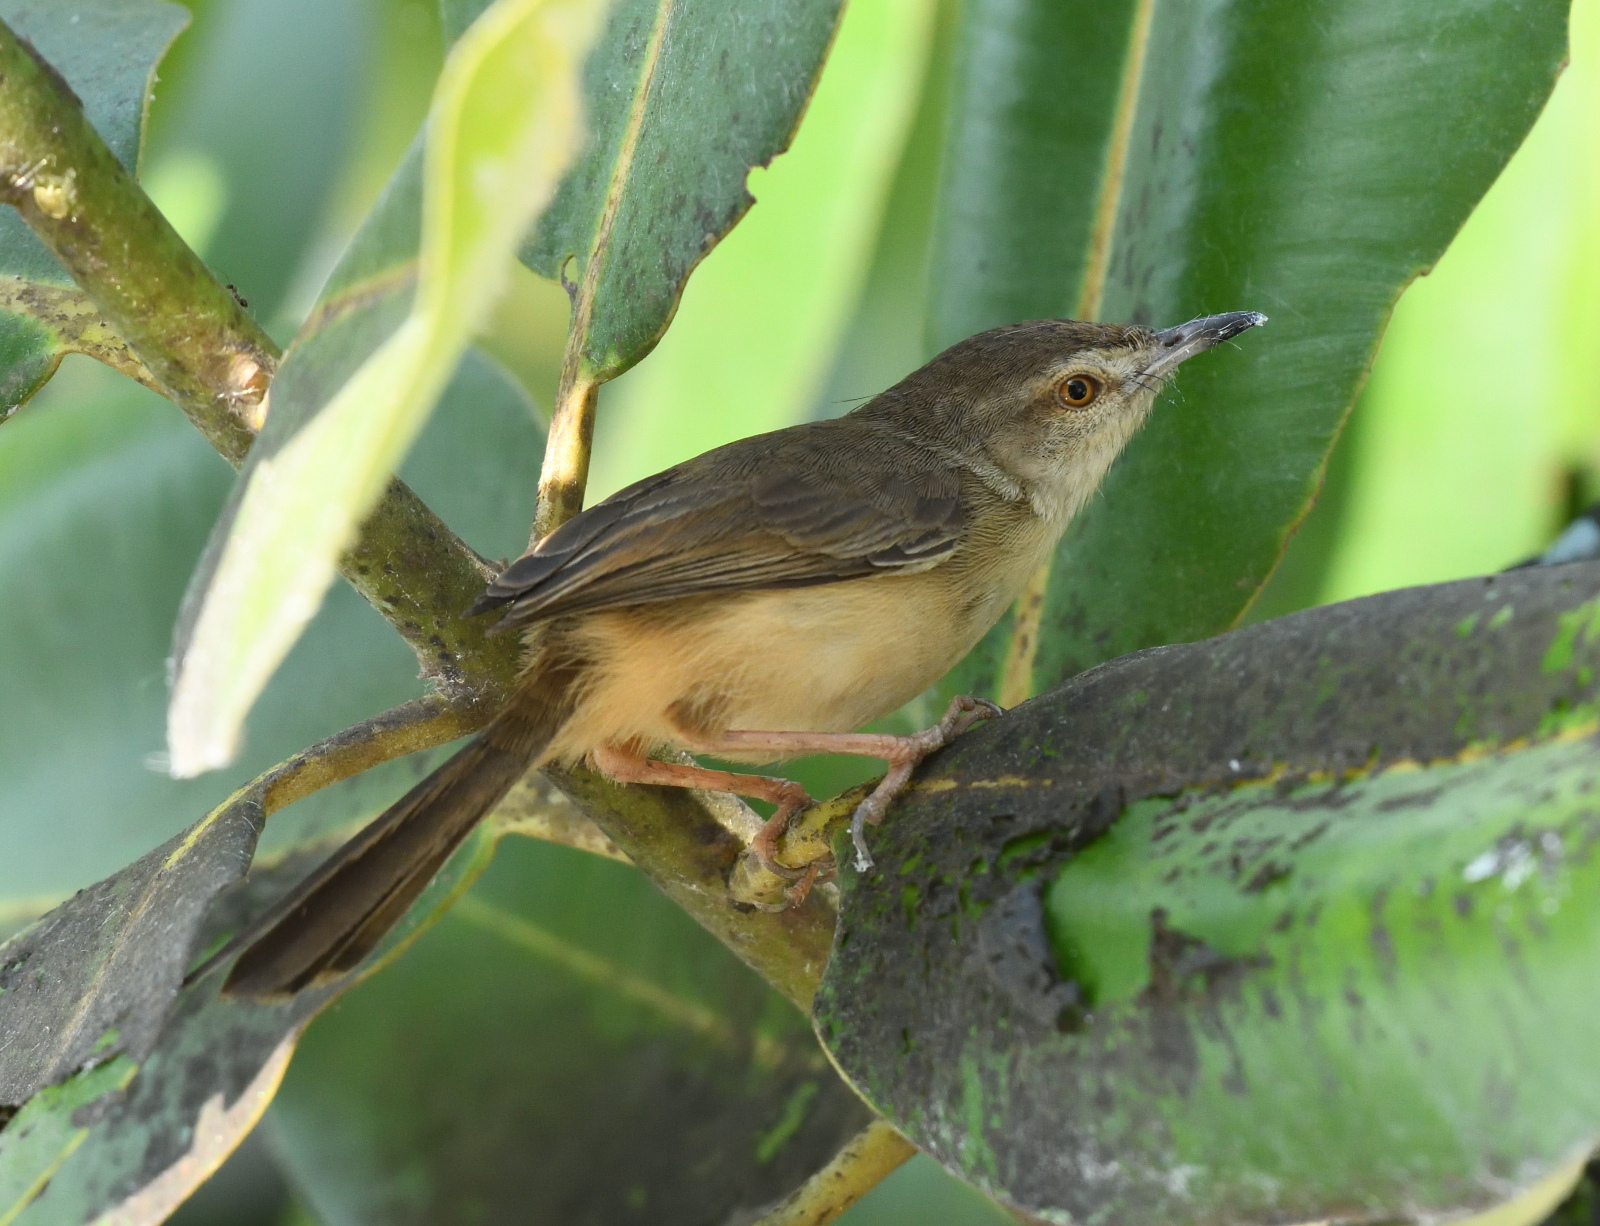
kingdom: Animalia
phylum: Chordata
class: Aves
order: Passeriformes
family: Cisticolidae
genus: Prinia
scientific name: Prinia inornata
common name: Plain prinia
